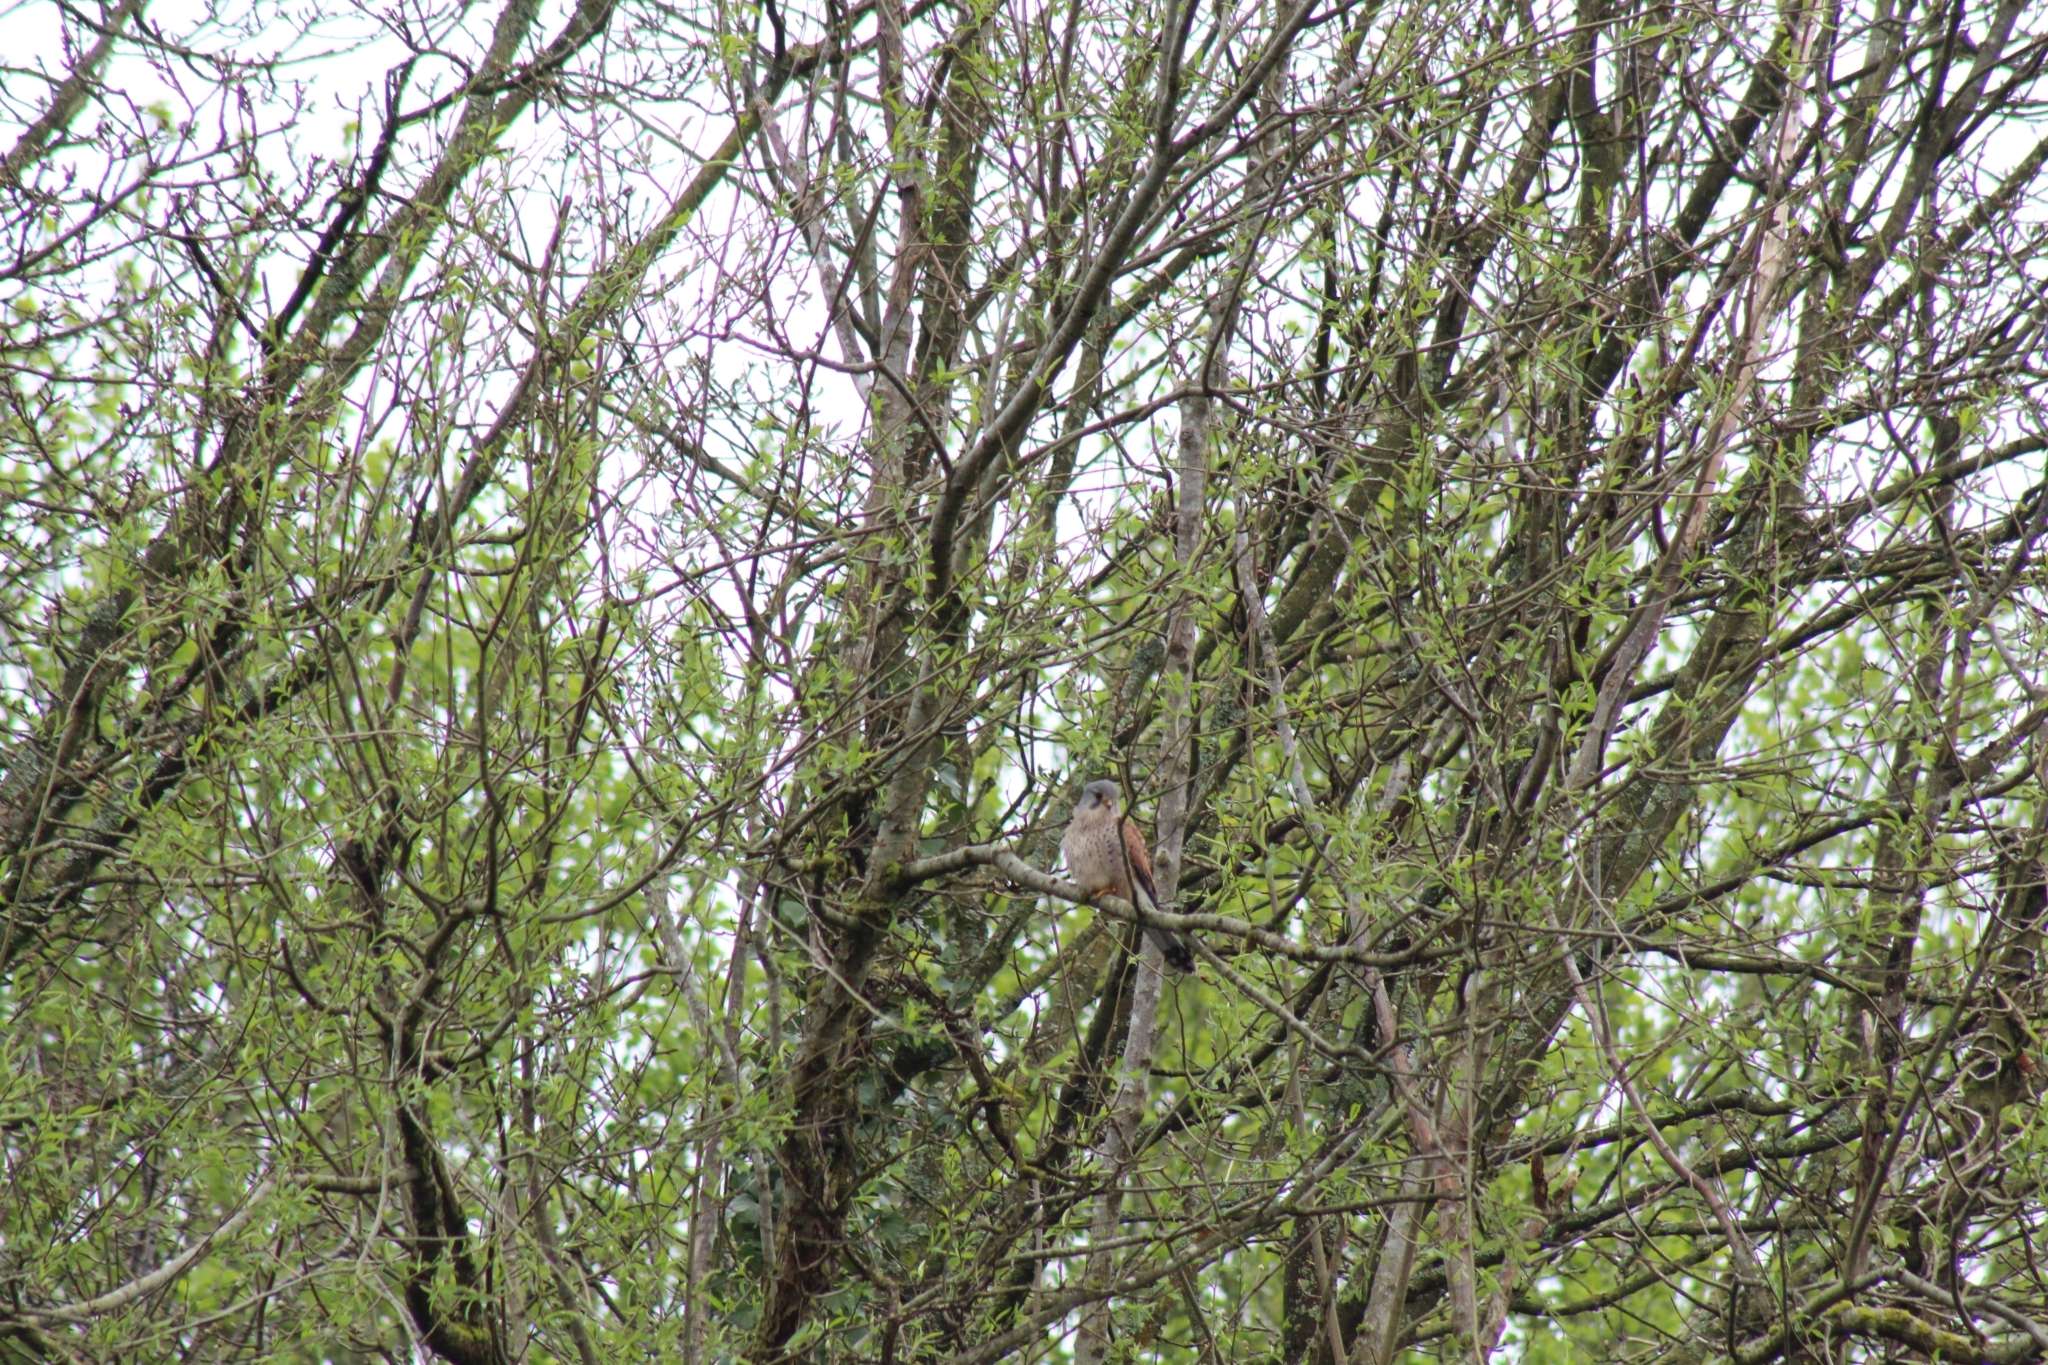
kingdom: Animalia
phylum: Chordata
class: Aves
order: Falconiformes
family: Falconidae
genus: Falco
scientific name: Falco tinnunculus
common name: Common kestrel
